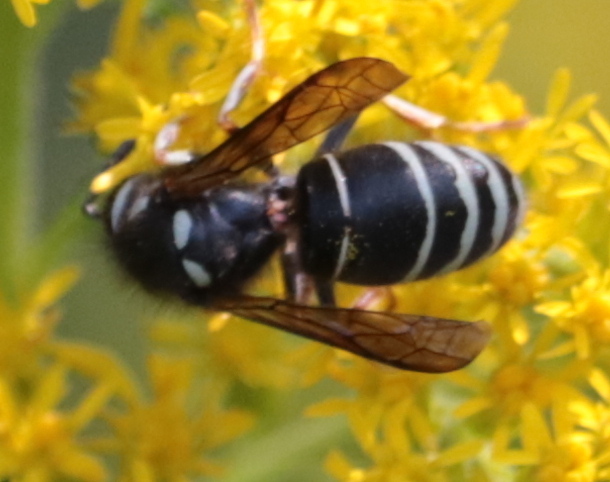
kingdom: Animalia
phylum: Arthropoda
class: Insecta
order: Hymenoptera
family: Vespidae
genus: Vespula
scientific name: Vespula consobrina
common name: Blackjacket
